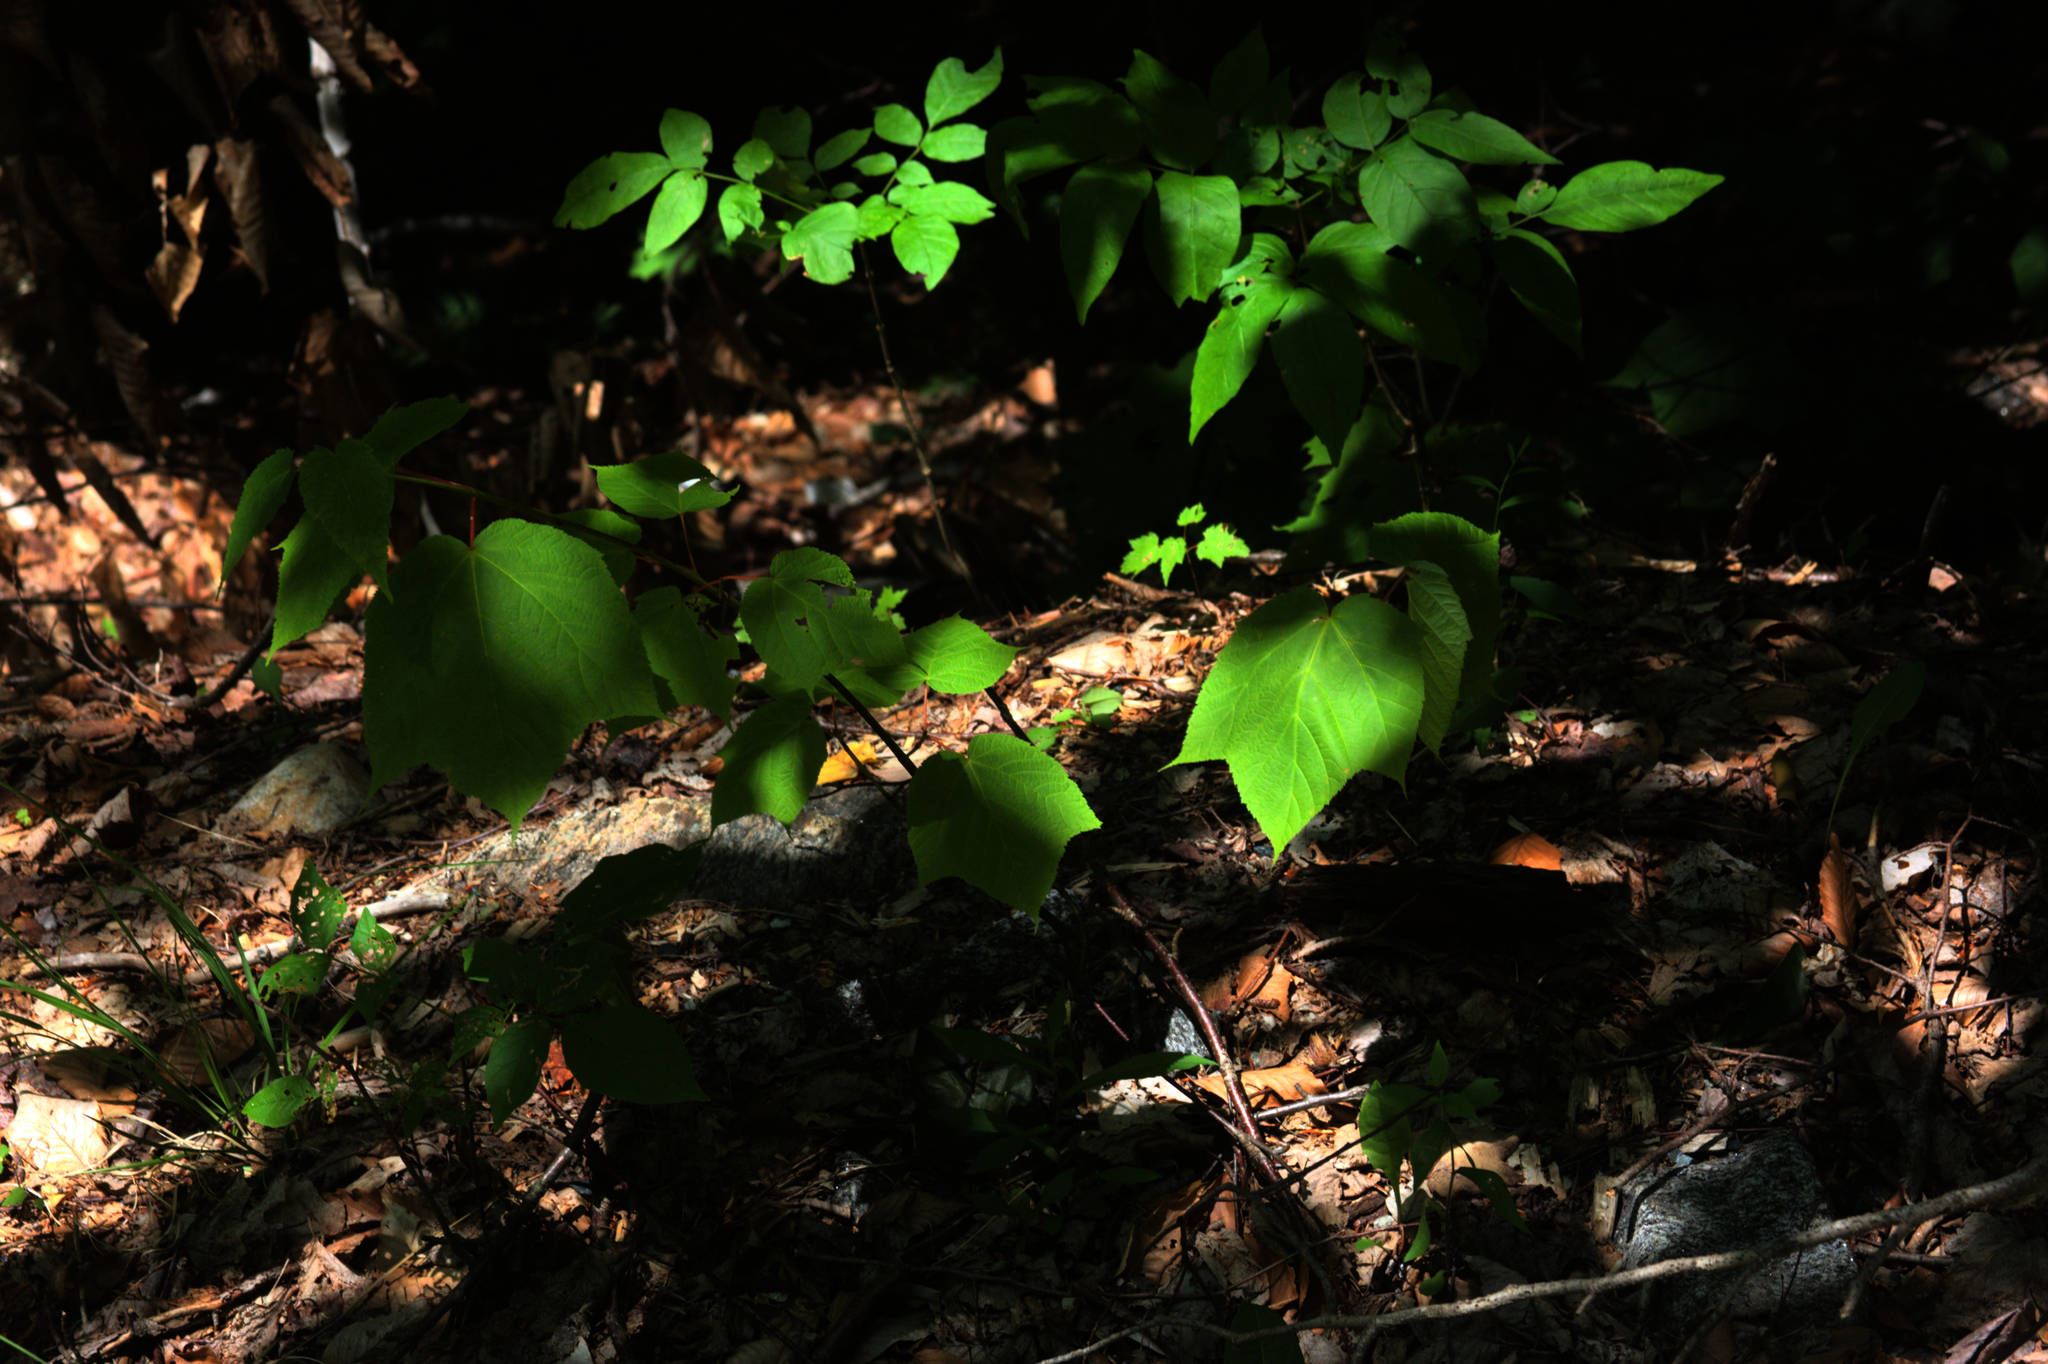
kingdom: Plantae
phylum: Tracheophyta
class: Magnoliopsida
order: Sapindales
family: Sapindaceae
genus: Acer
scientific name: Acer pensylvanicum
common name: Moosewood
